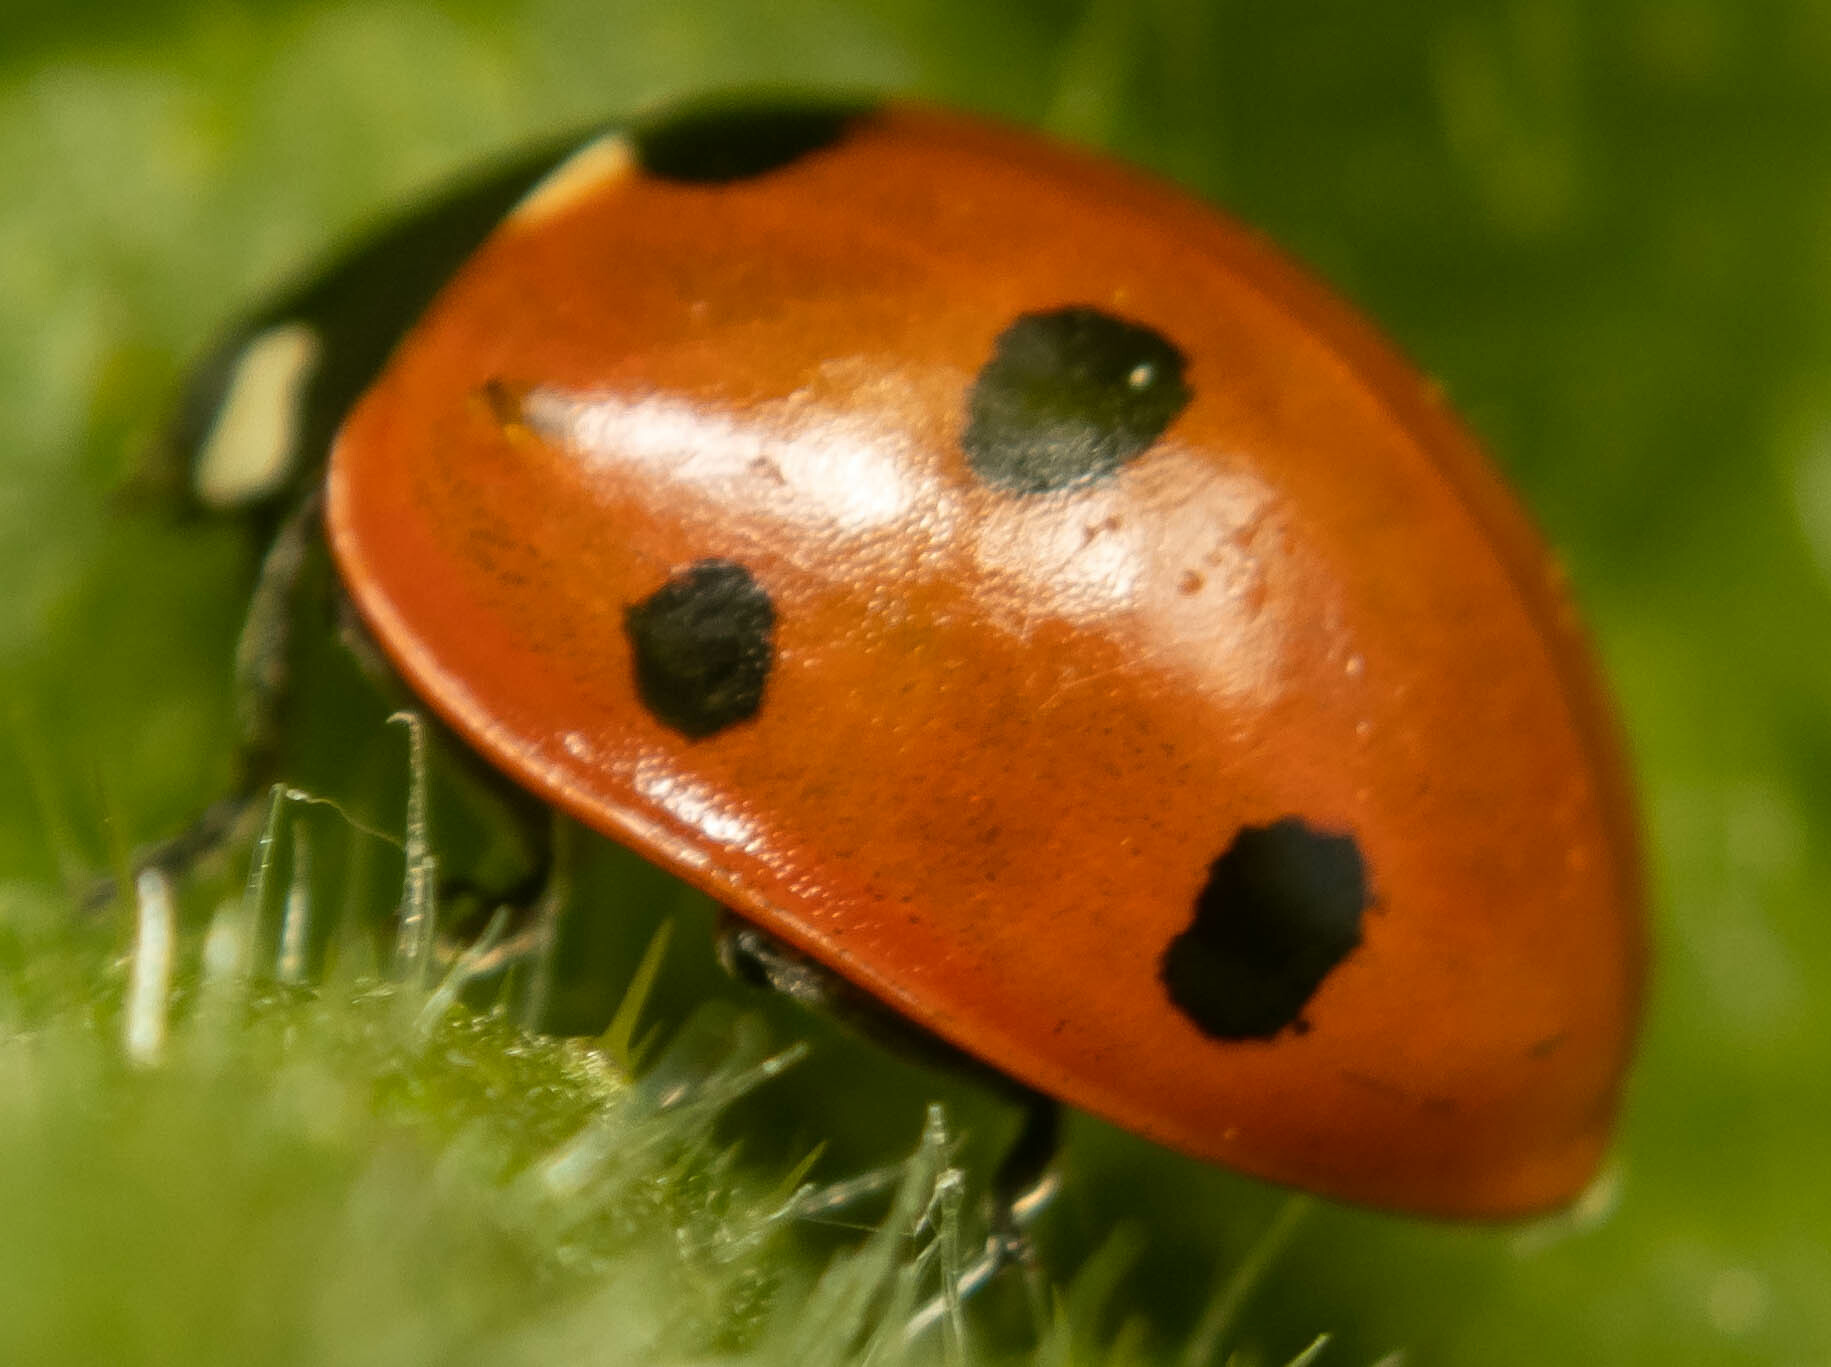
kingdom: Animalia
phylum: Arthropoda
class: Insecta
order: Coleoptera
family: Coccinellidae
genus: Coccinella
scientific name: Coccinella septempunctata
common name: Sevenspotted lady beetle
